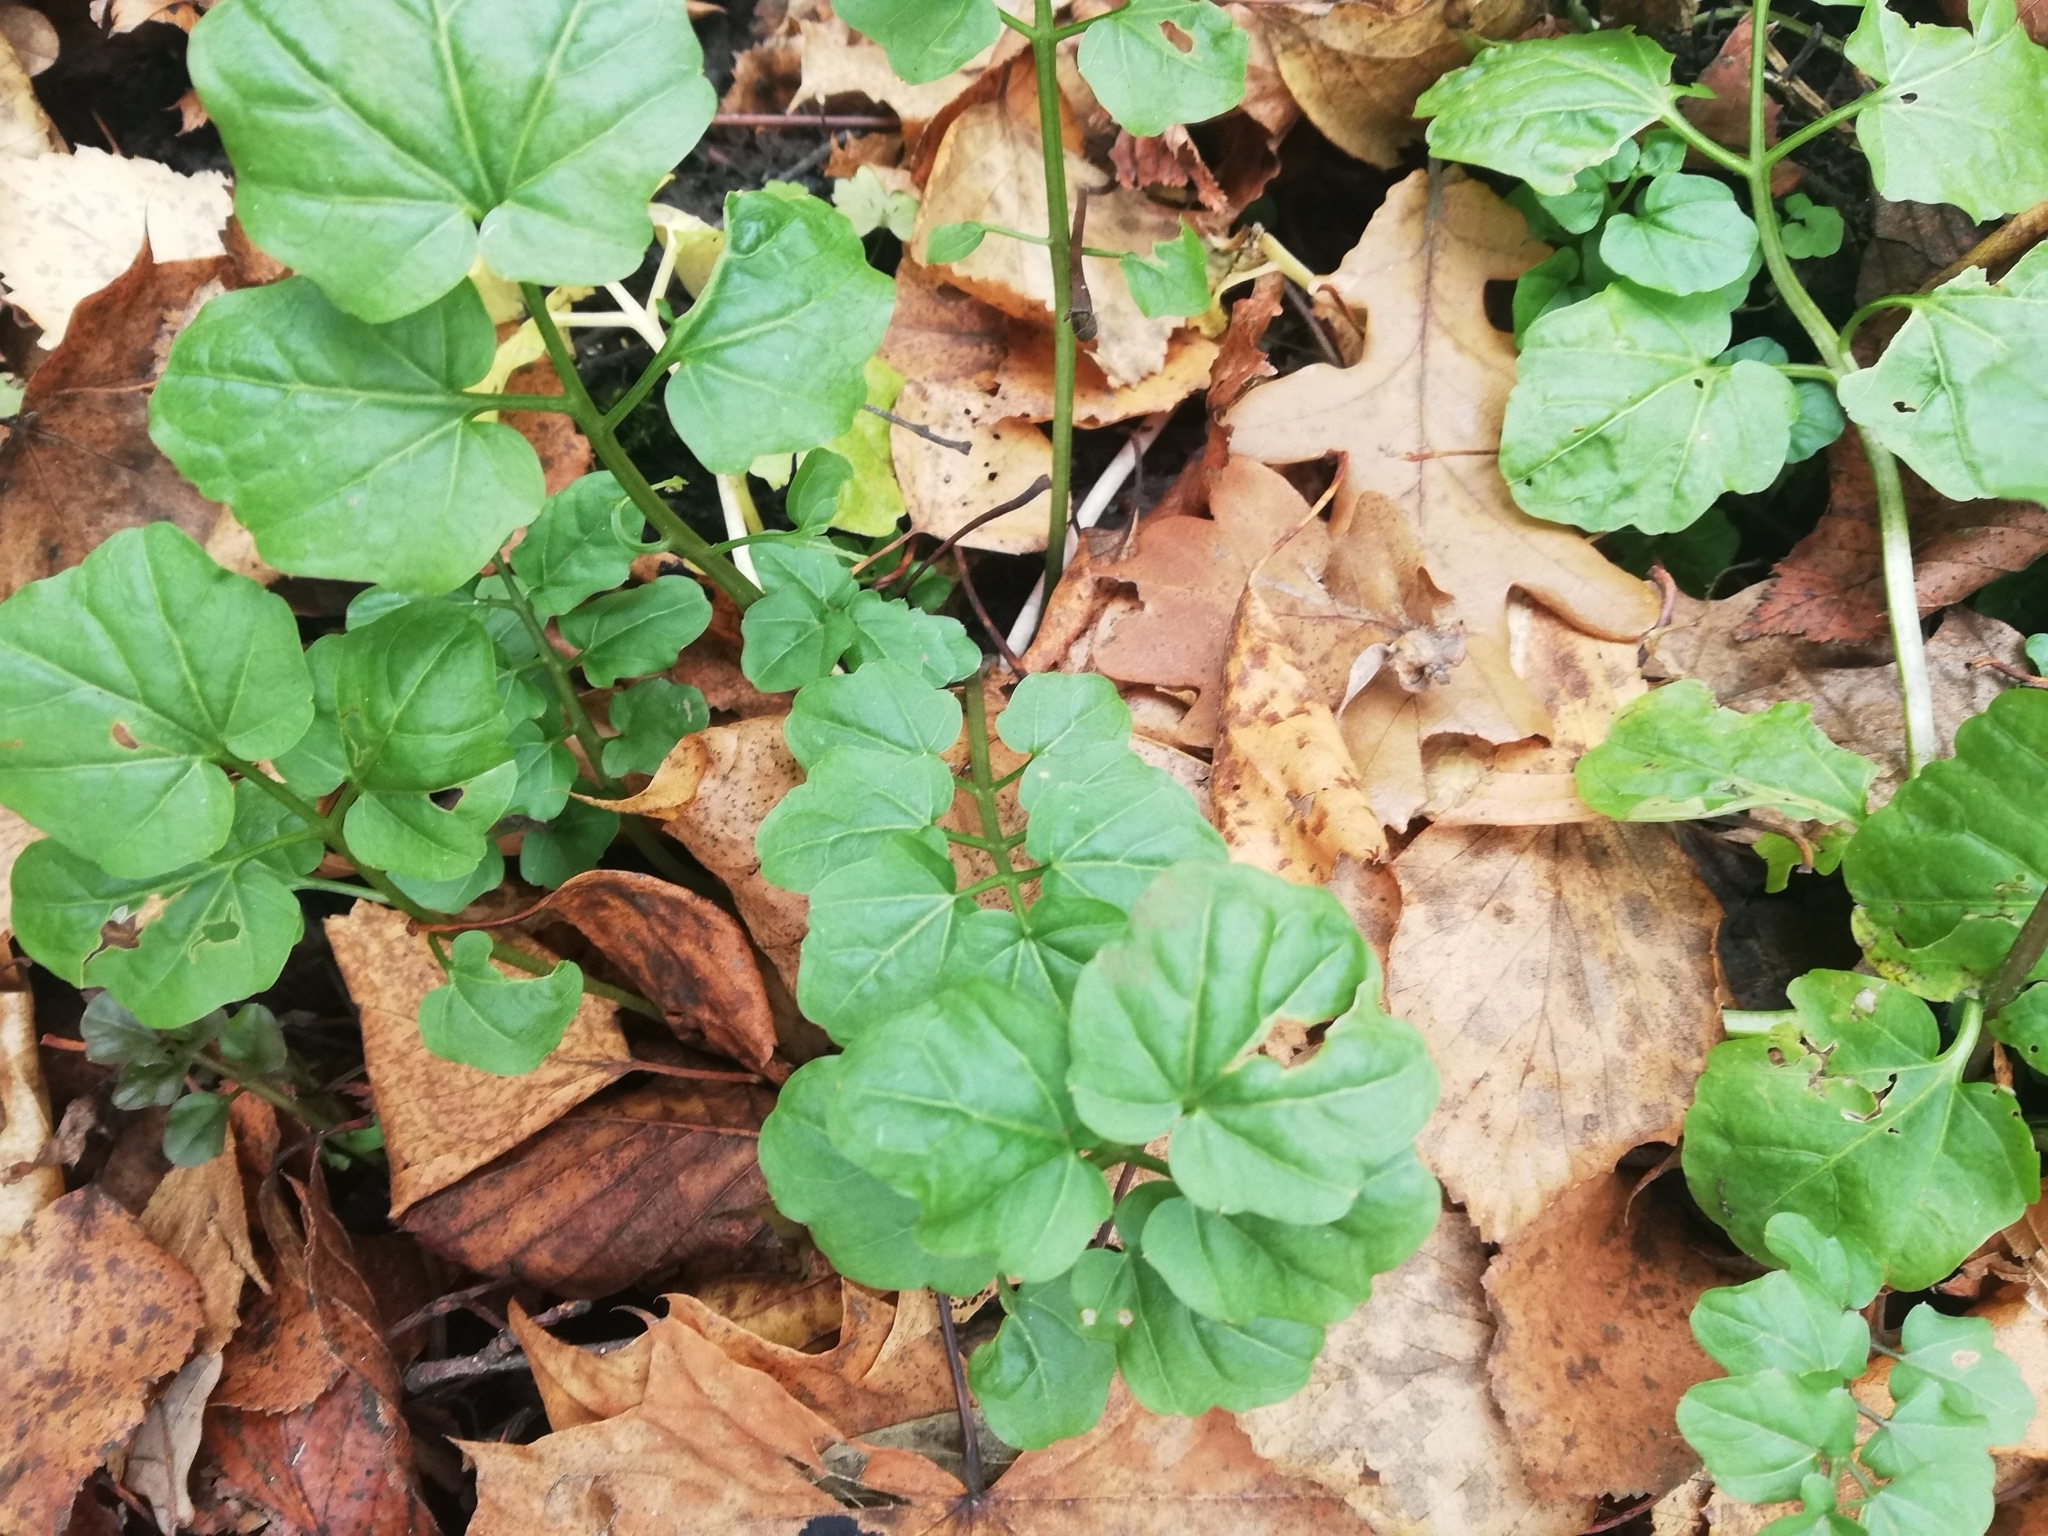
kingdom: Plantae
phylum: Tracheophyta
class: Magnoliopsida
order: Brassicales
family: Brassicaceae
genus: Cardamine
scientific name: Cardamine amara
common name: Large bitter-cress
